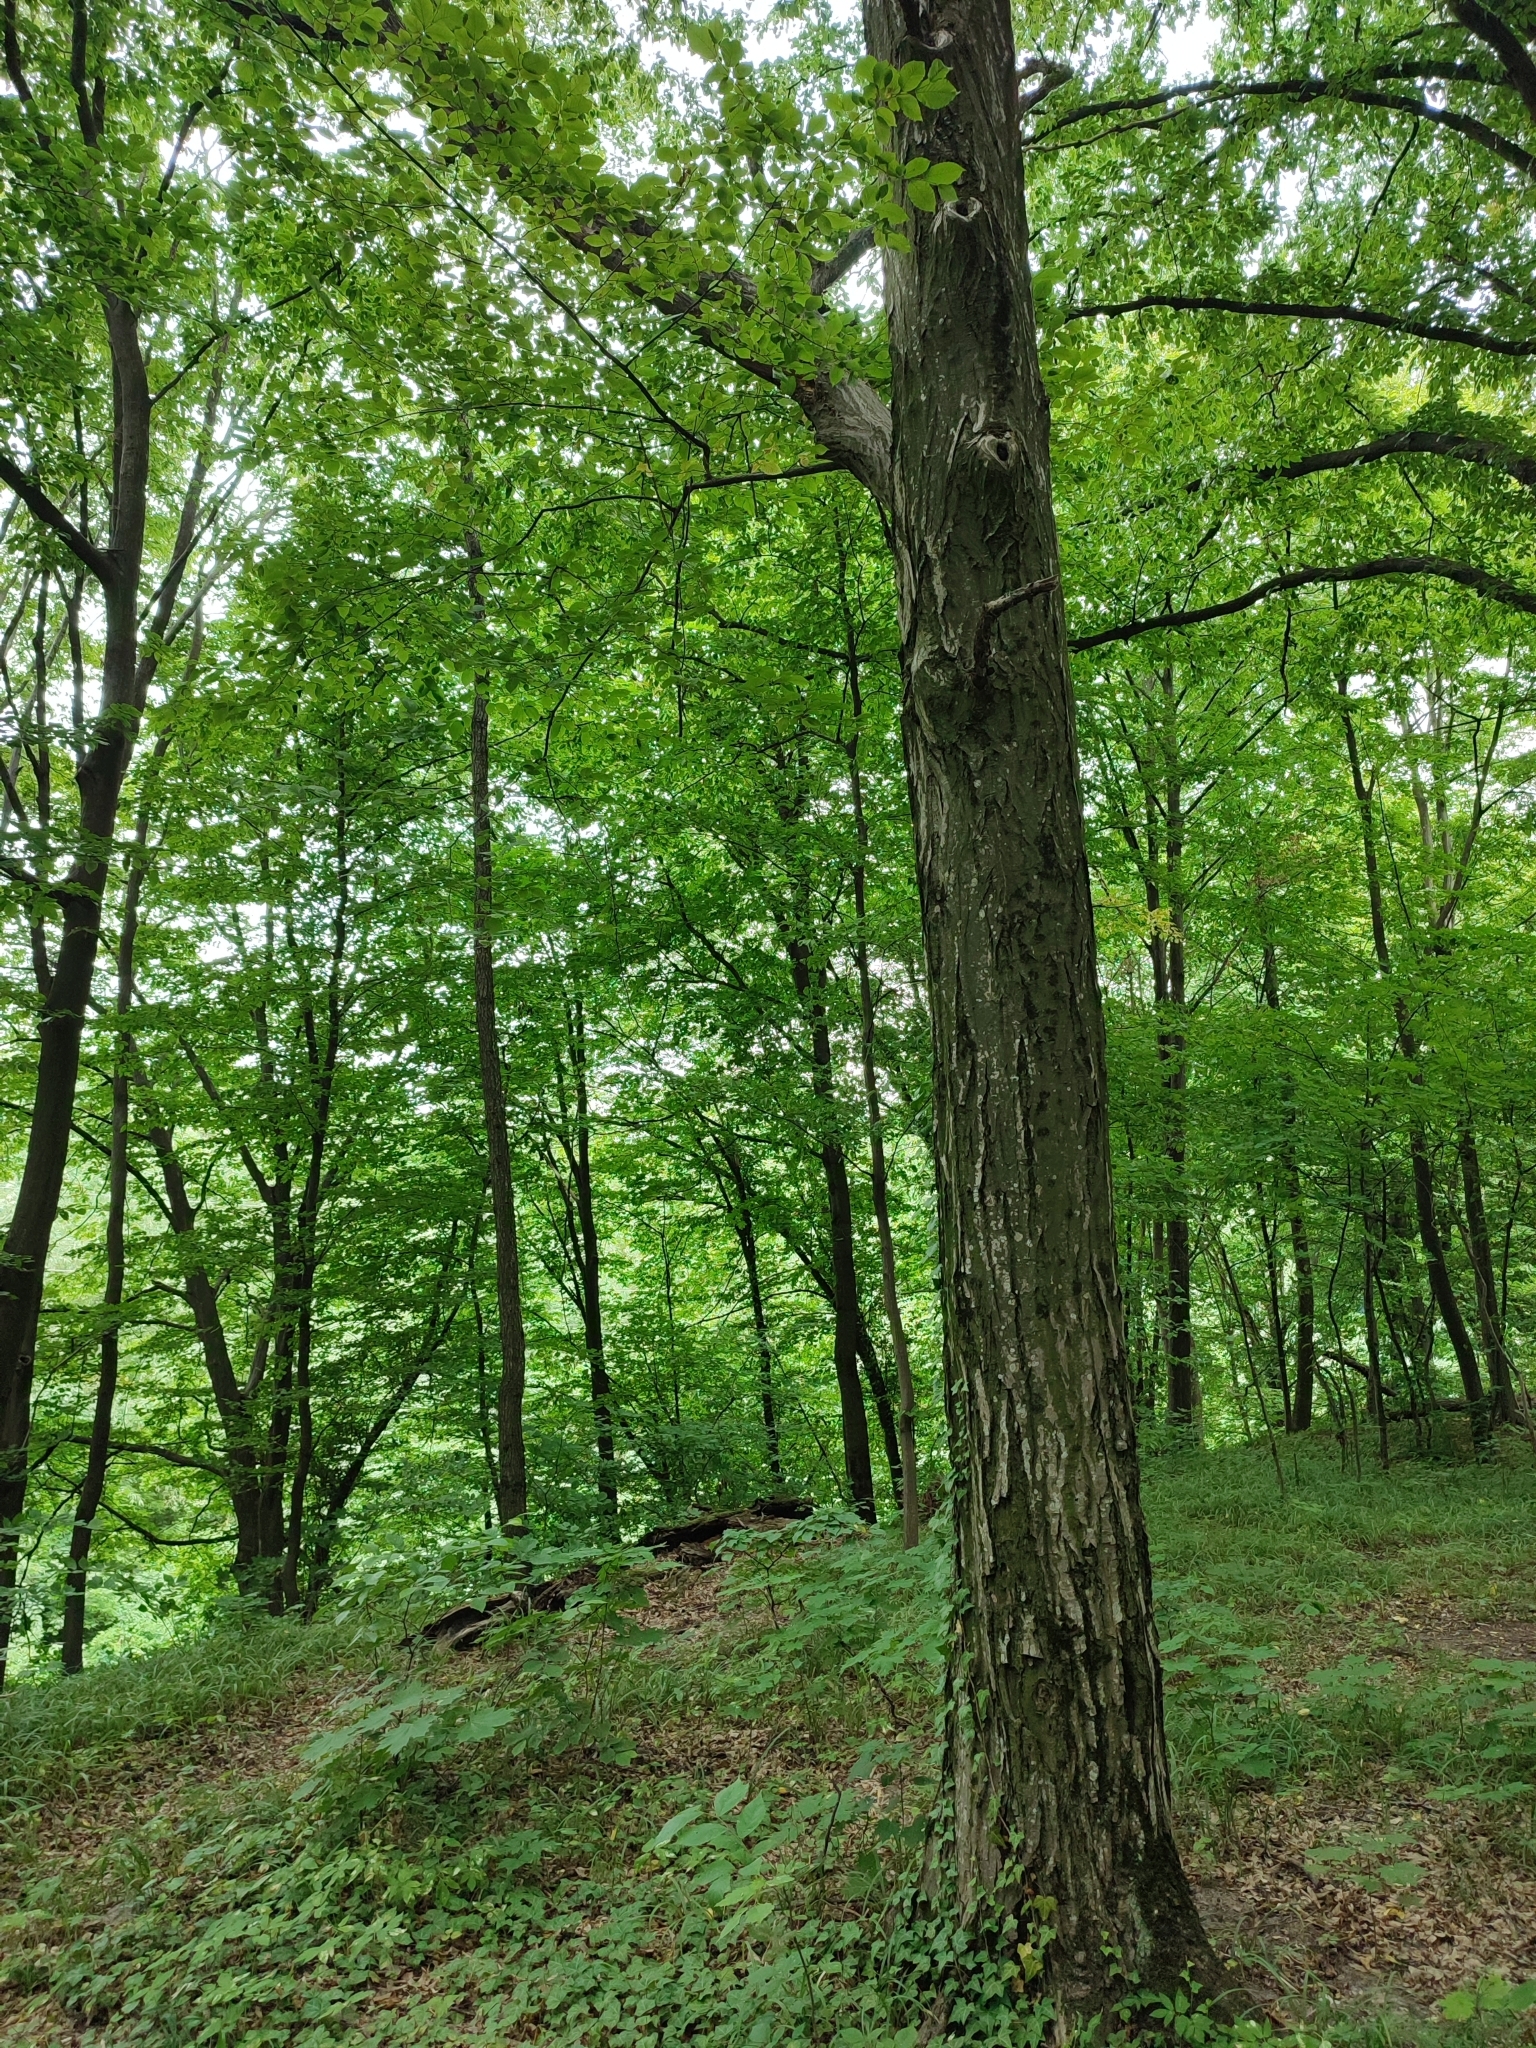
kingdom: Plantae
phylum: Tracheophyta
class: Magnoliopsida
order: Fagales
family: Betulaceae
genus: Carpinus
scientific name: Carpinus betulus
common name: Hornbeam
